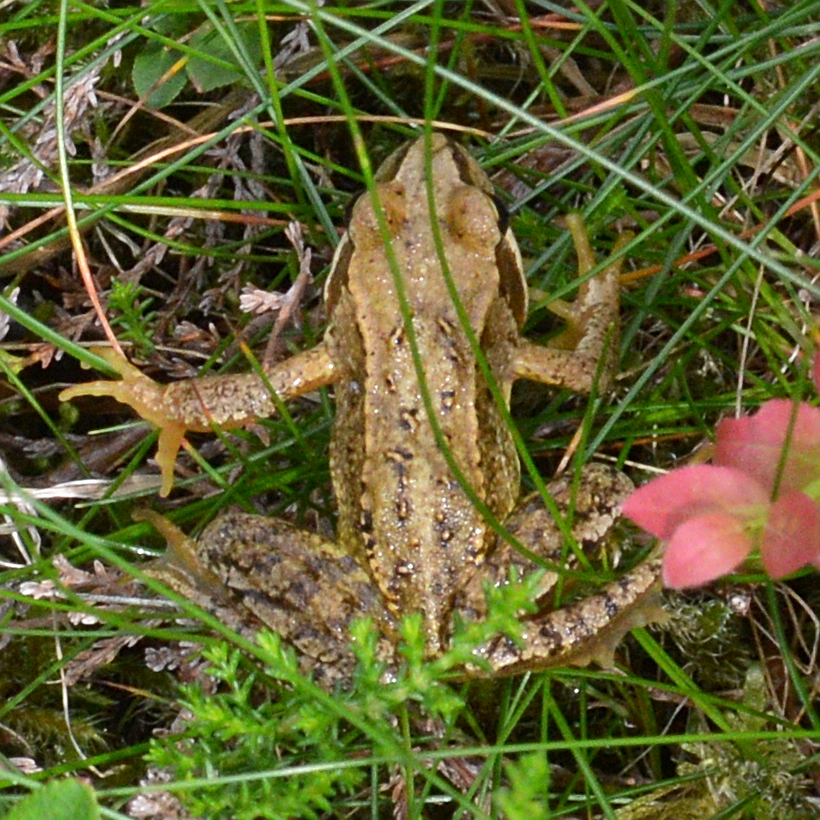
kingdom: Animalia
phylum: Chordata
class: Amphibia
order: Anura
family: Ranidae
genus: Rana
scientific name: Rana temporaria
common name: Common frog
